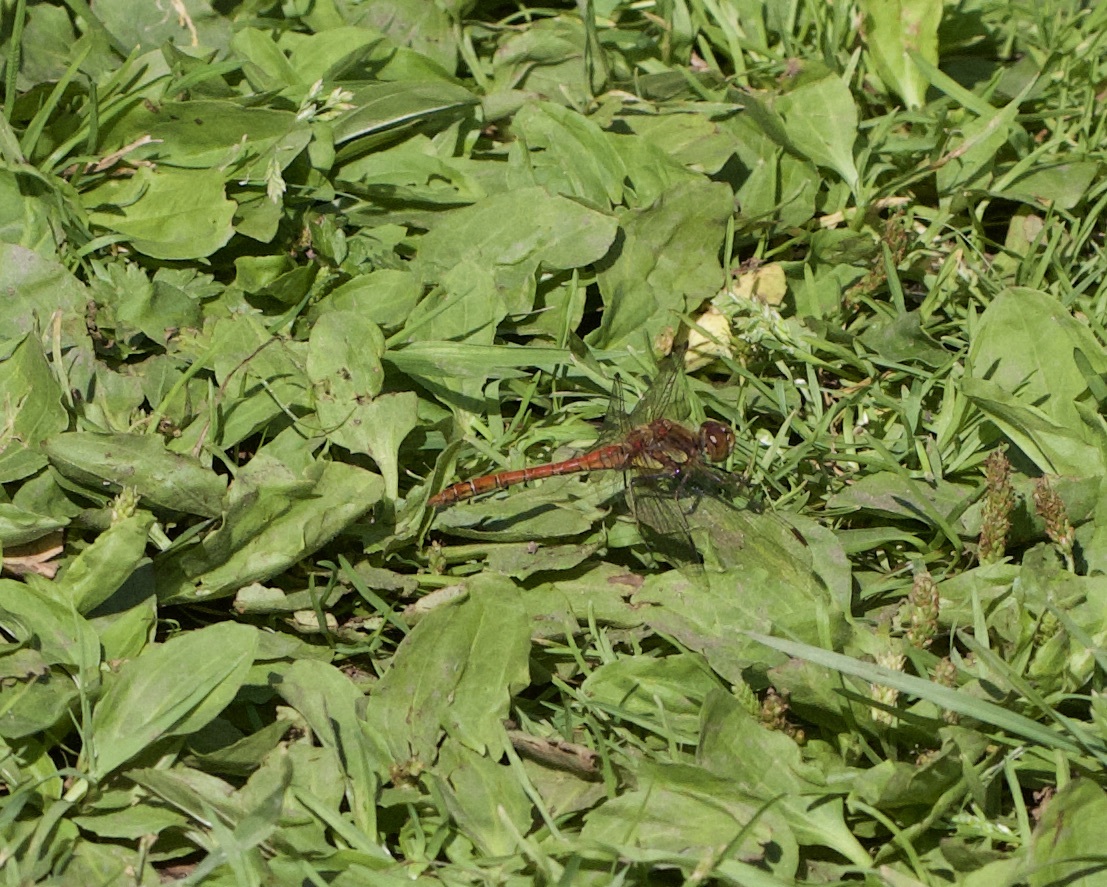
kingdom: Animalia
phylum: Arthropoda
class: Insecta
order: Odonata
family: Libellulidae
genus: Sympetrum
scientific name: Sympetrum striolatum
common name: Common darter
